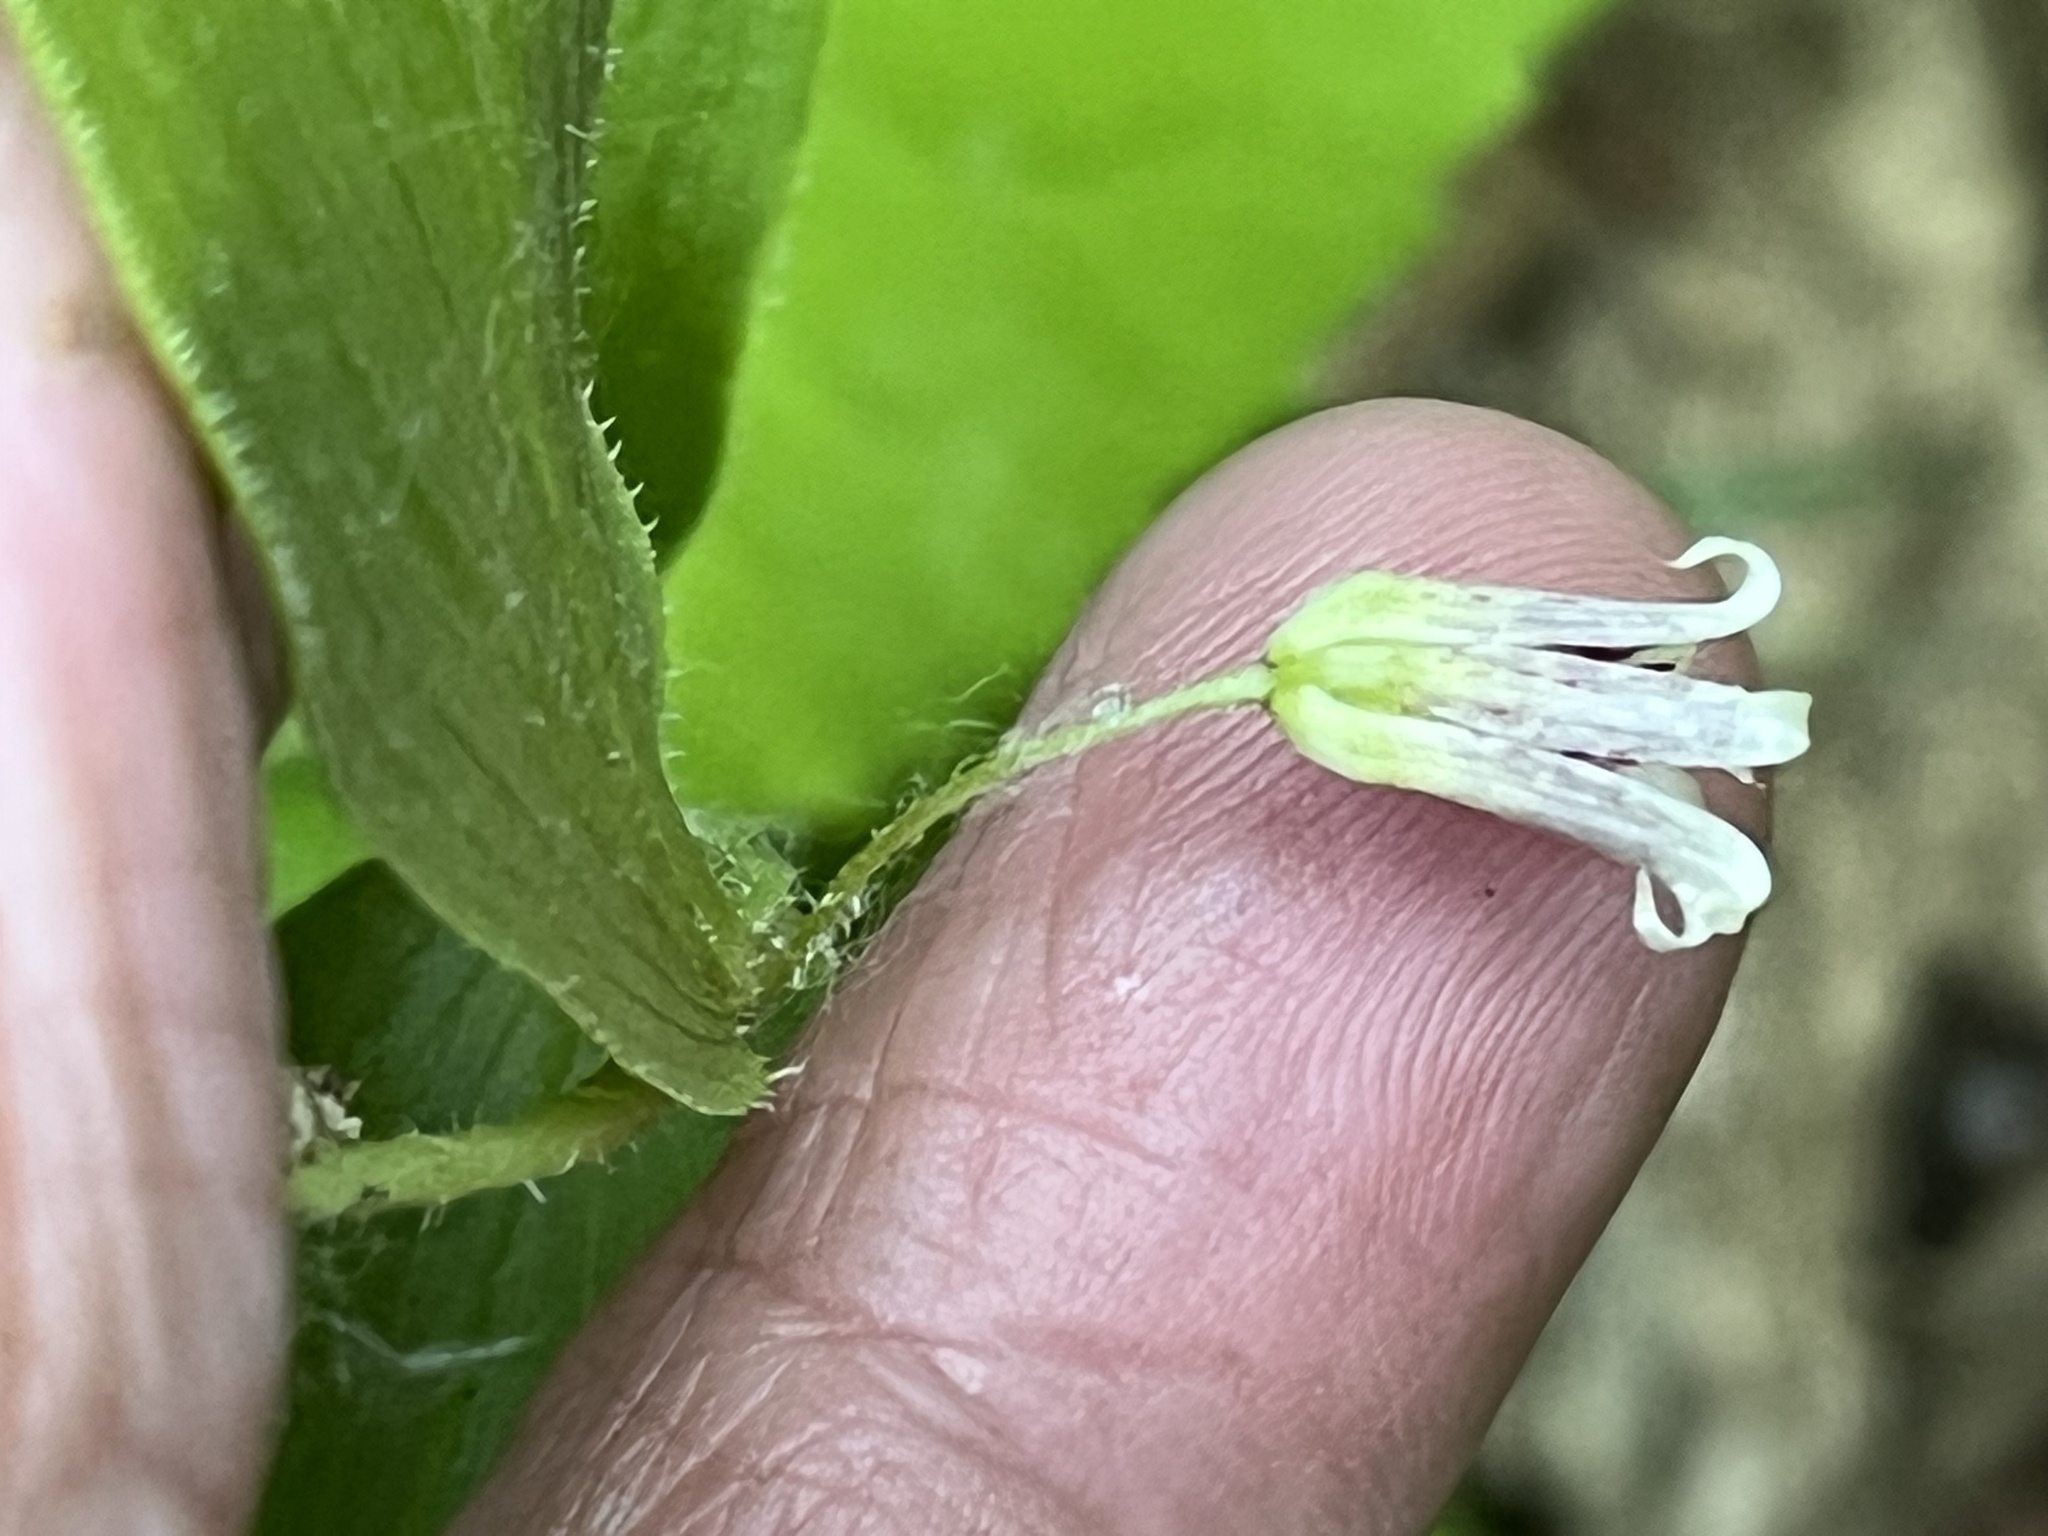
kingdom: Plantae
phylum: Tracheophyta
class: Liliopsida
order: Liliales
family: Liliaceae
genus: Streptopus
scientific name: Streptopus lanceolatus
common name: Rose mandarin
